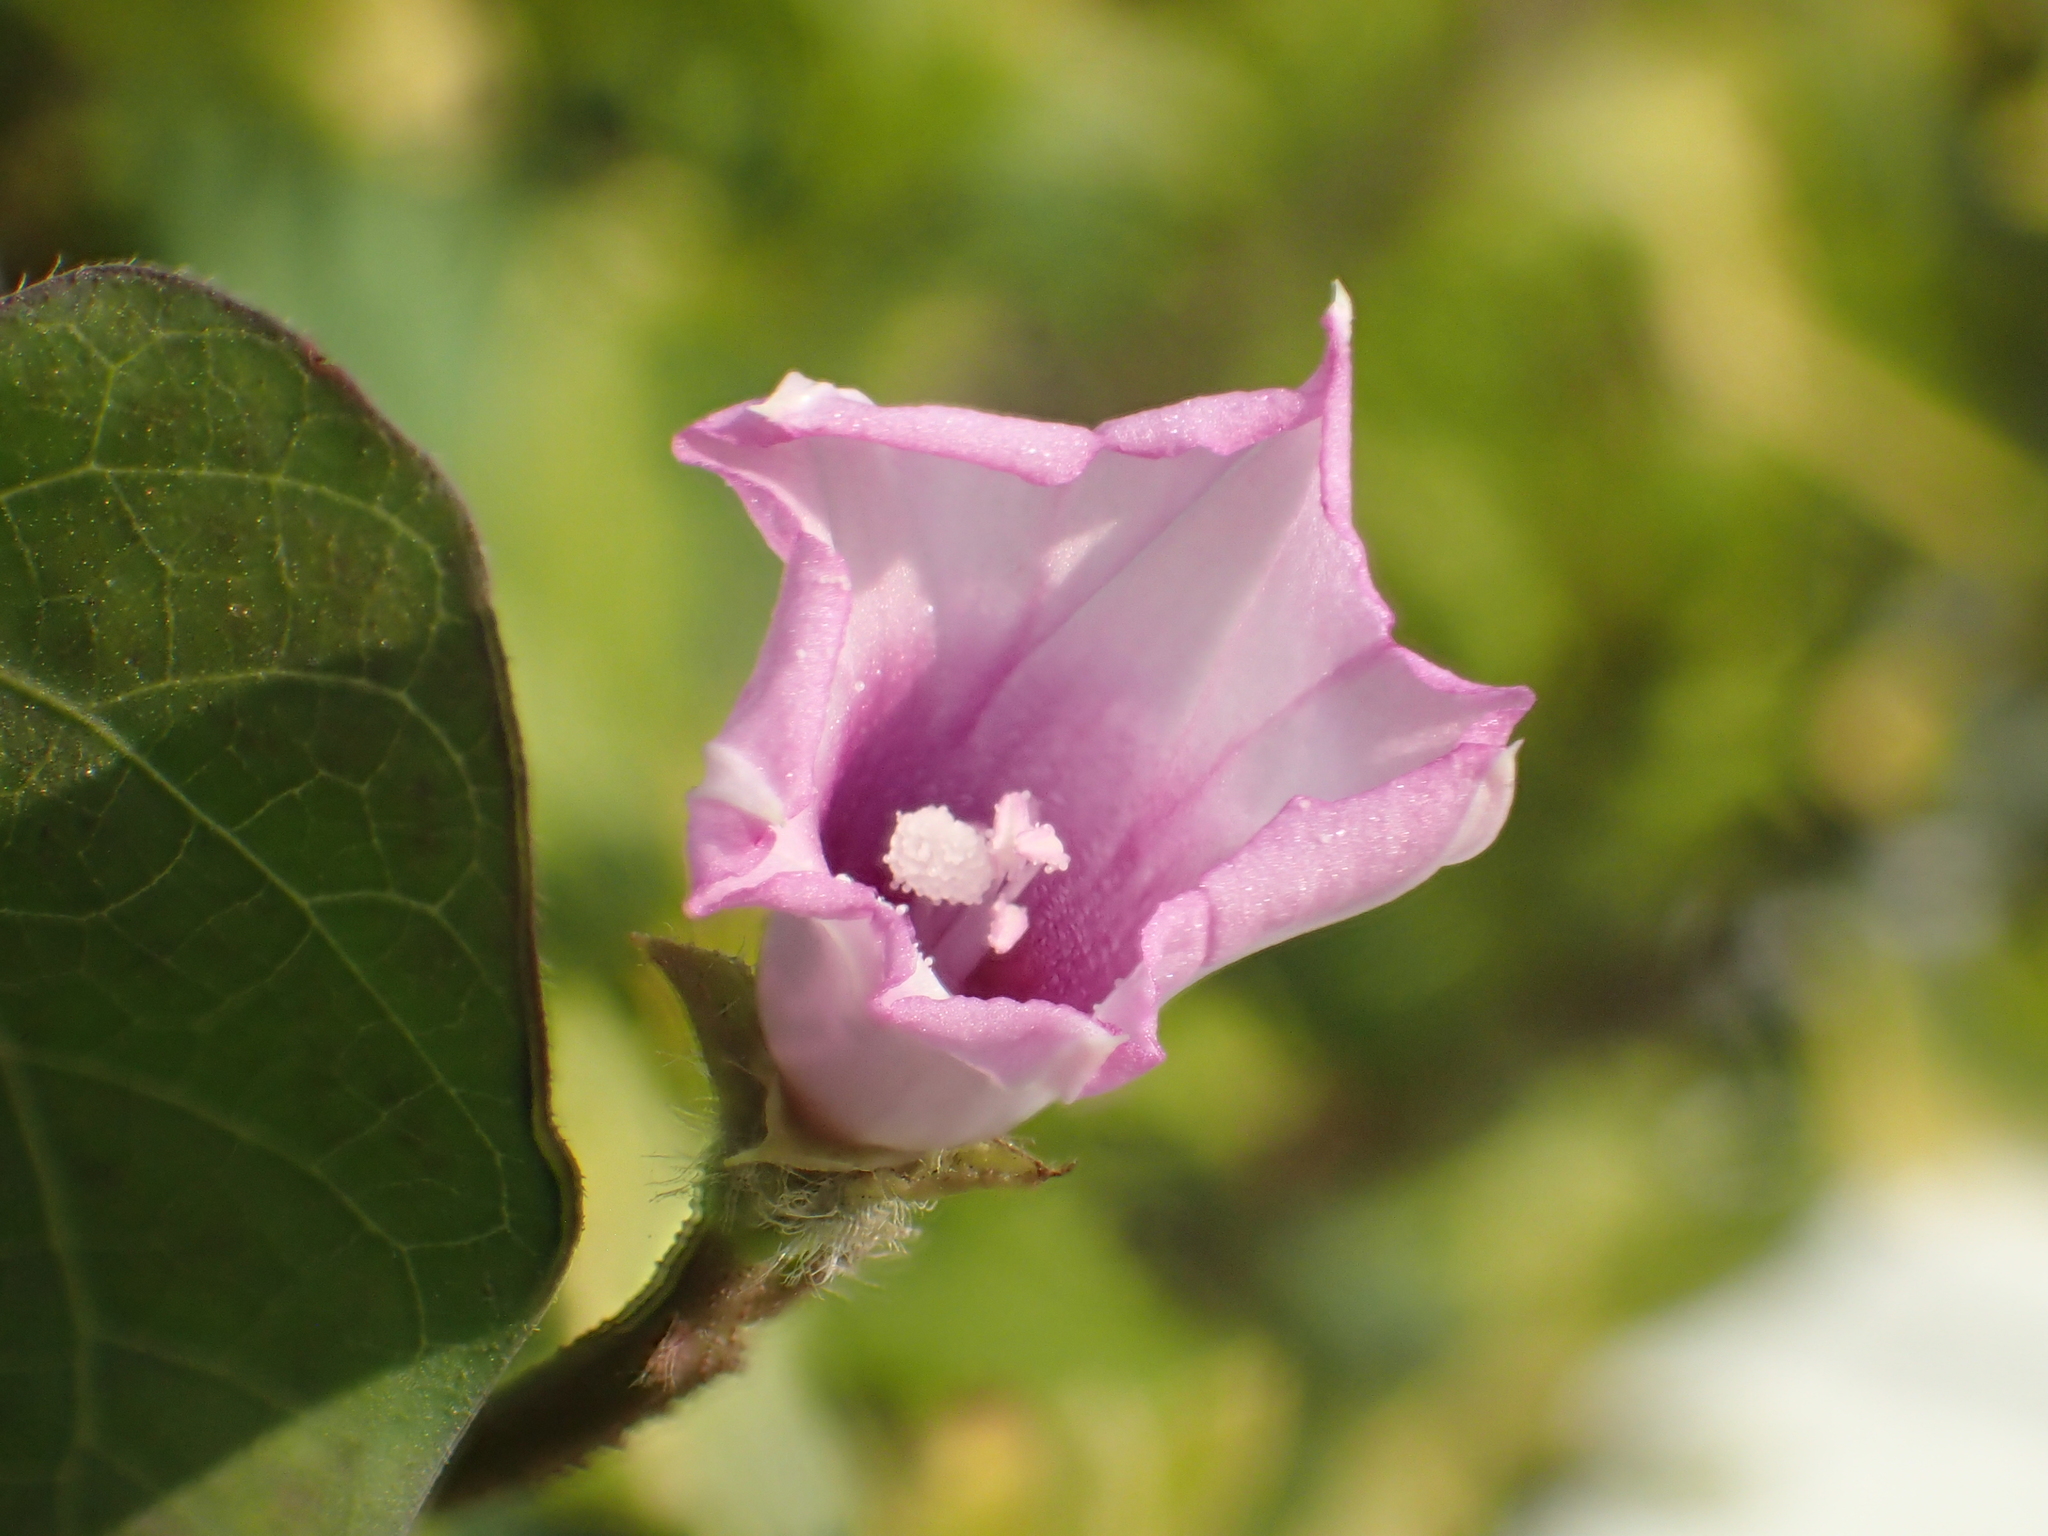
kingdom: Plantae
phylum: Tracheophyta
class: Magnoliopsida
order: Solanales
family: Convolvulaceae
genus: Ipomoea
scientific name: Ipomoea triloba
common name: Little-bell
